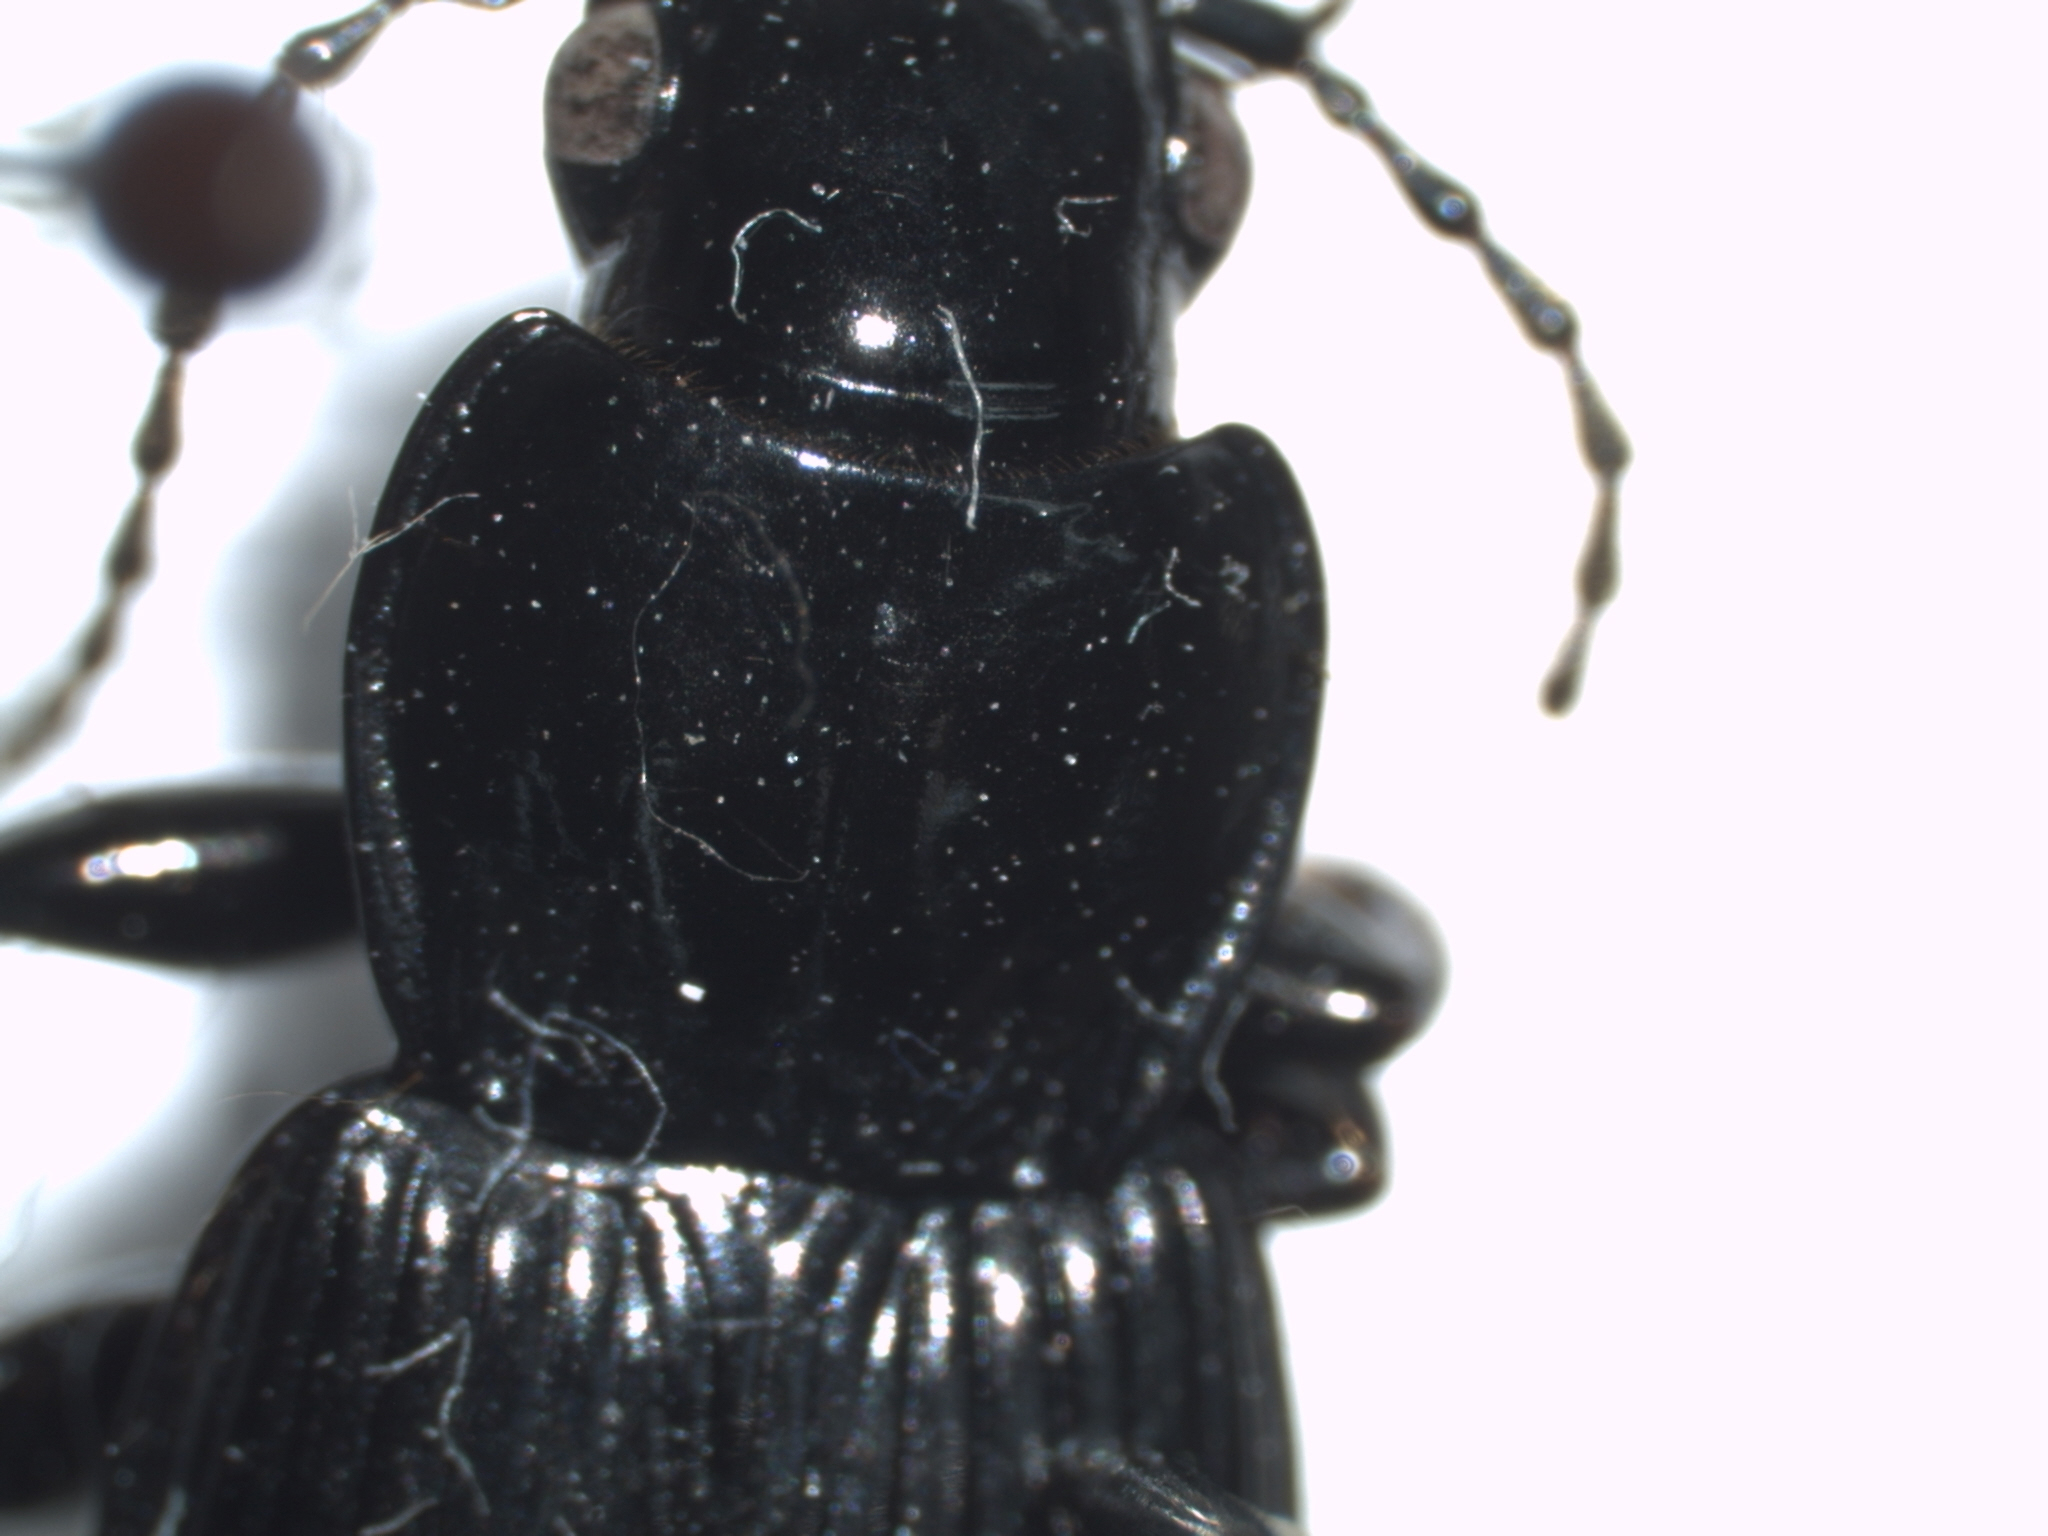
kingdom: Animalia
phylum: Arthropoda
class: Insecta
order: Coleoptera
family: Carabidae
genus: Pterostichus
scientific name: Pterostichus melanarius
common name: European dark harp ground beetle
